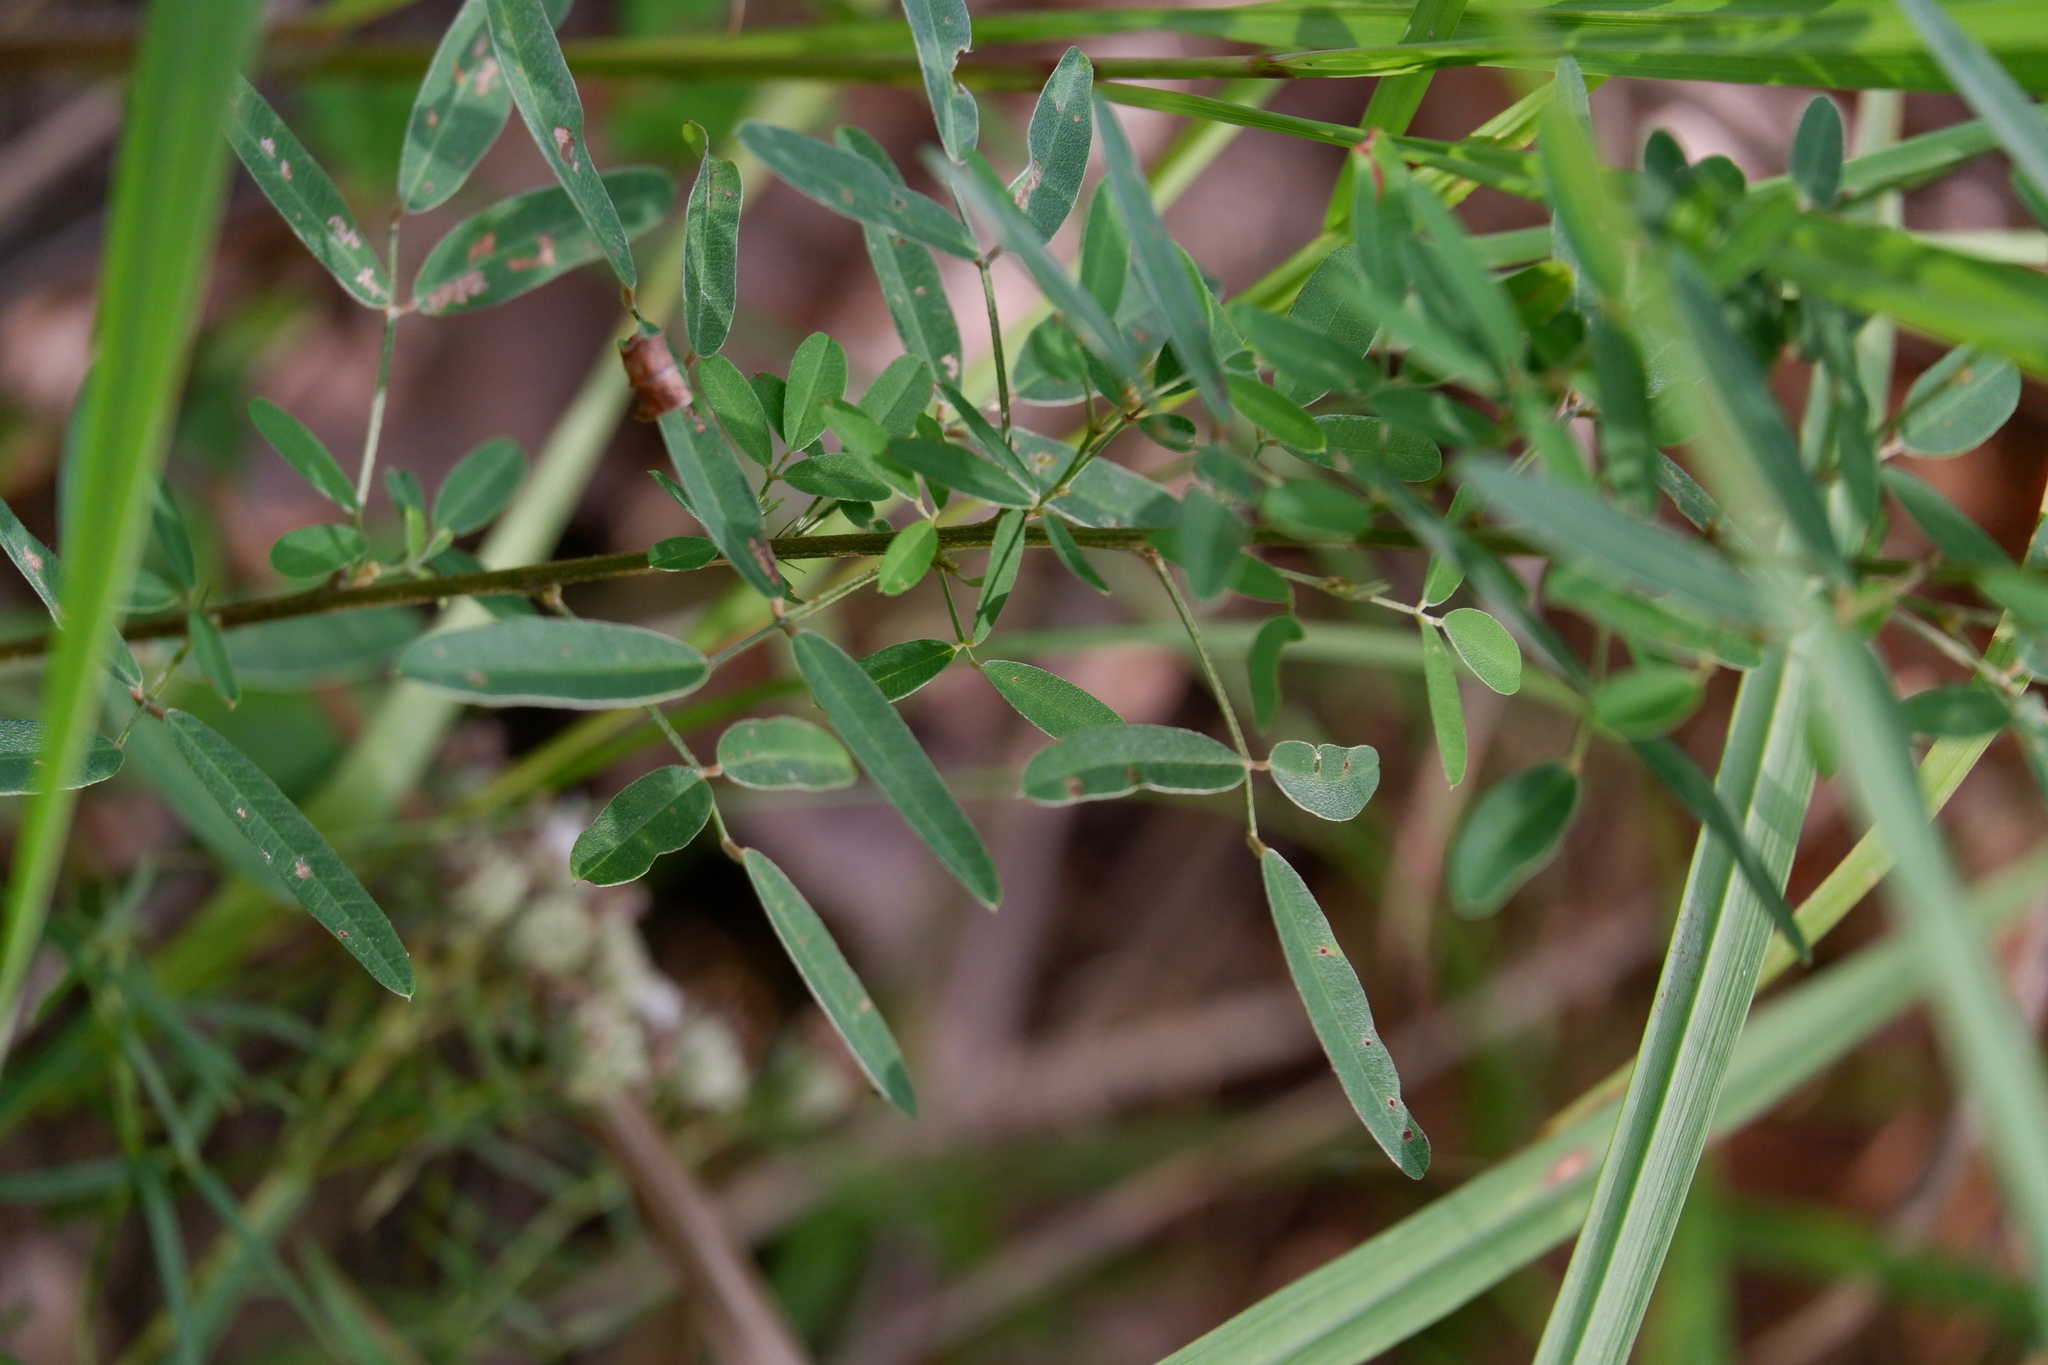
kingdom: Plantae
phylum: Tracheophyta
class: Magnoliopsida
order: Fabales
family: Fabaceae
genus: Lespedeza
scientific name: Lespedeza virginica
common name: Slender bush-clover
